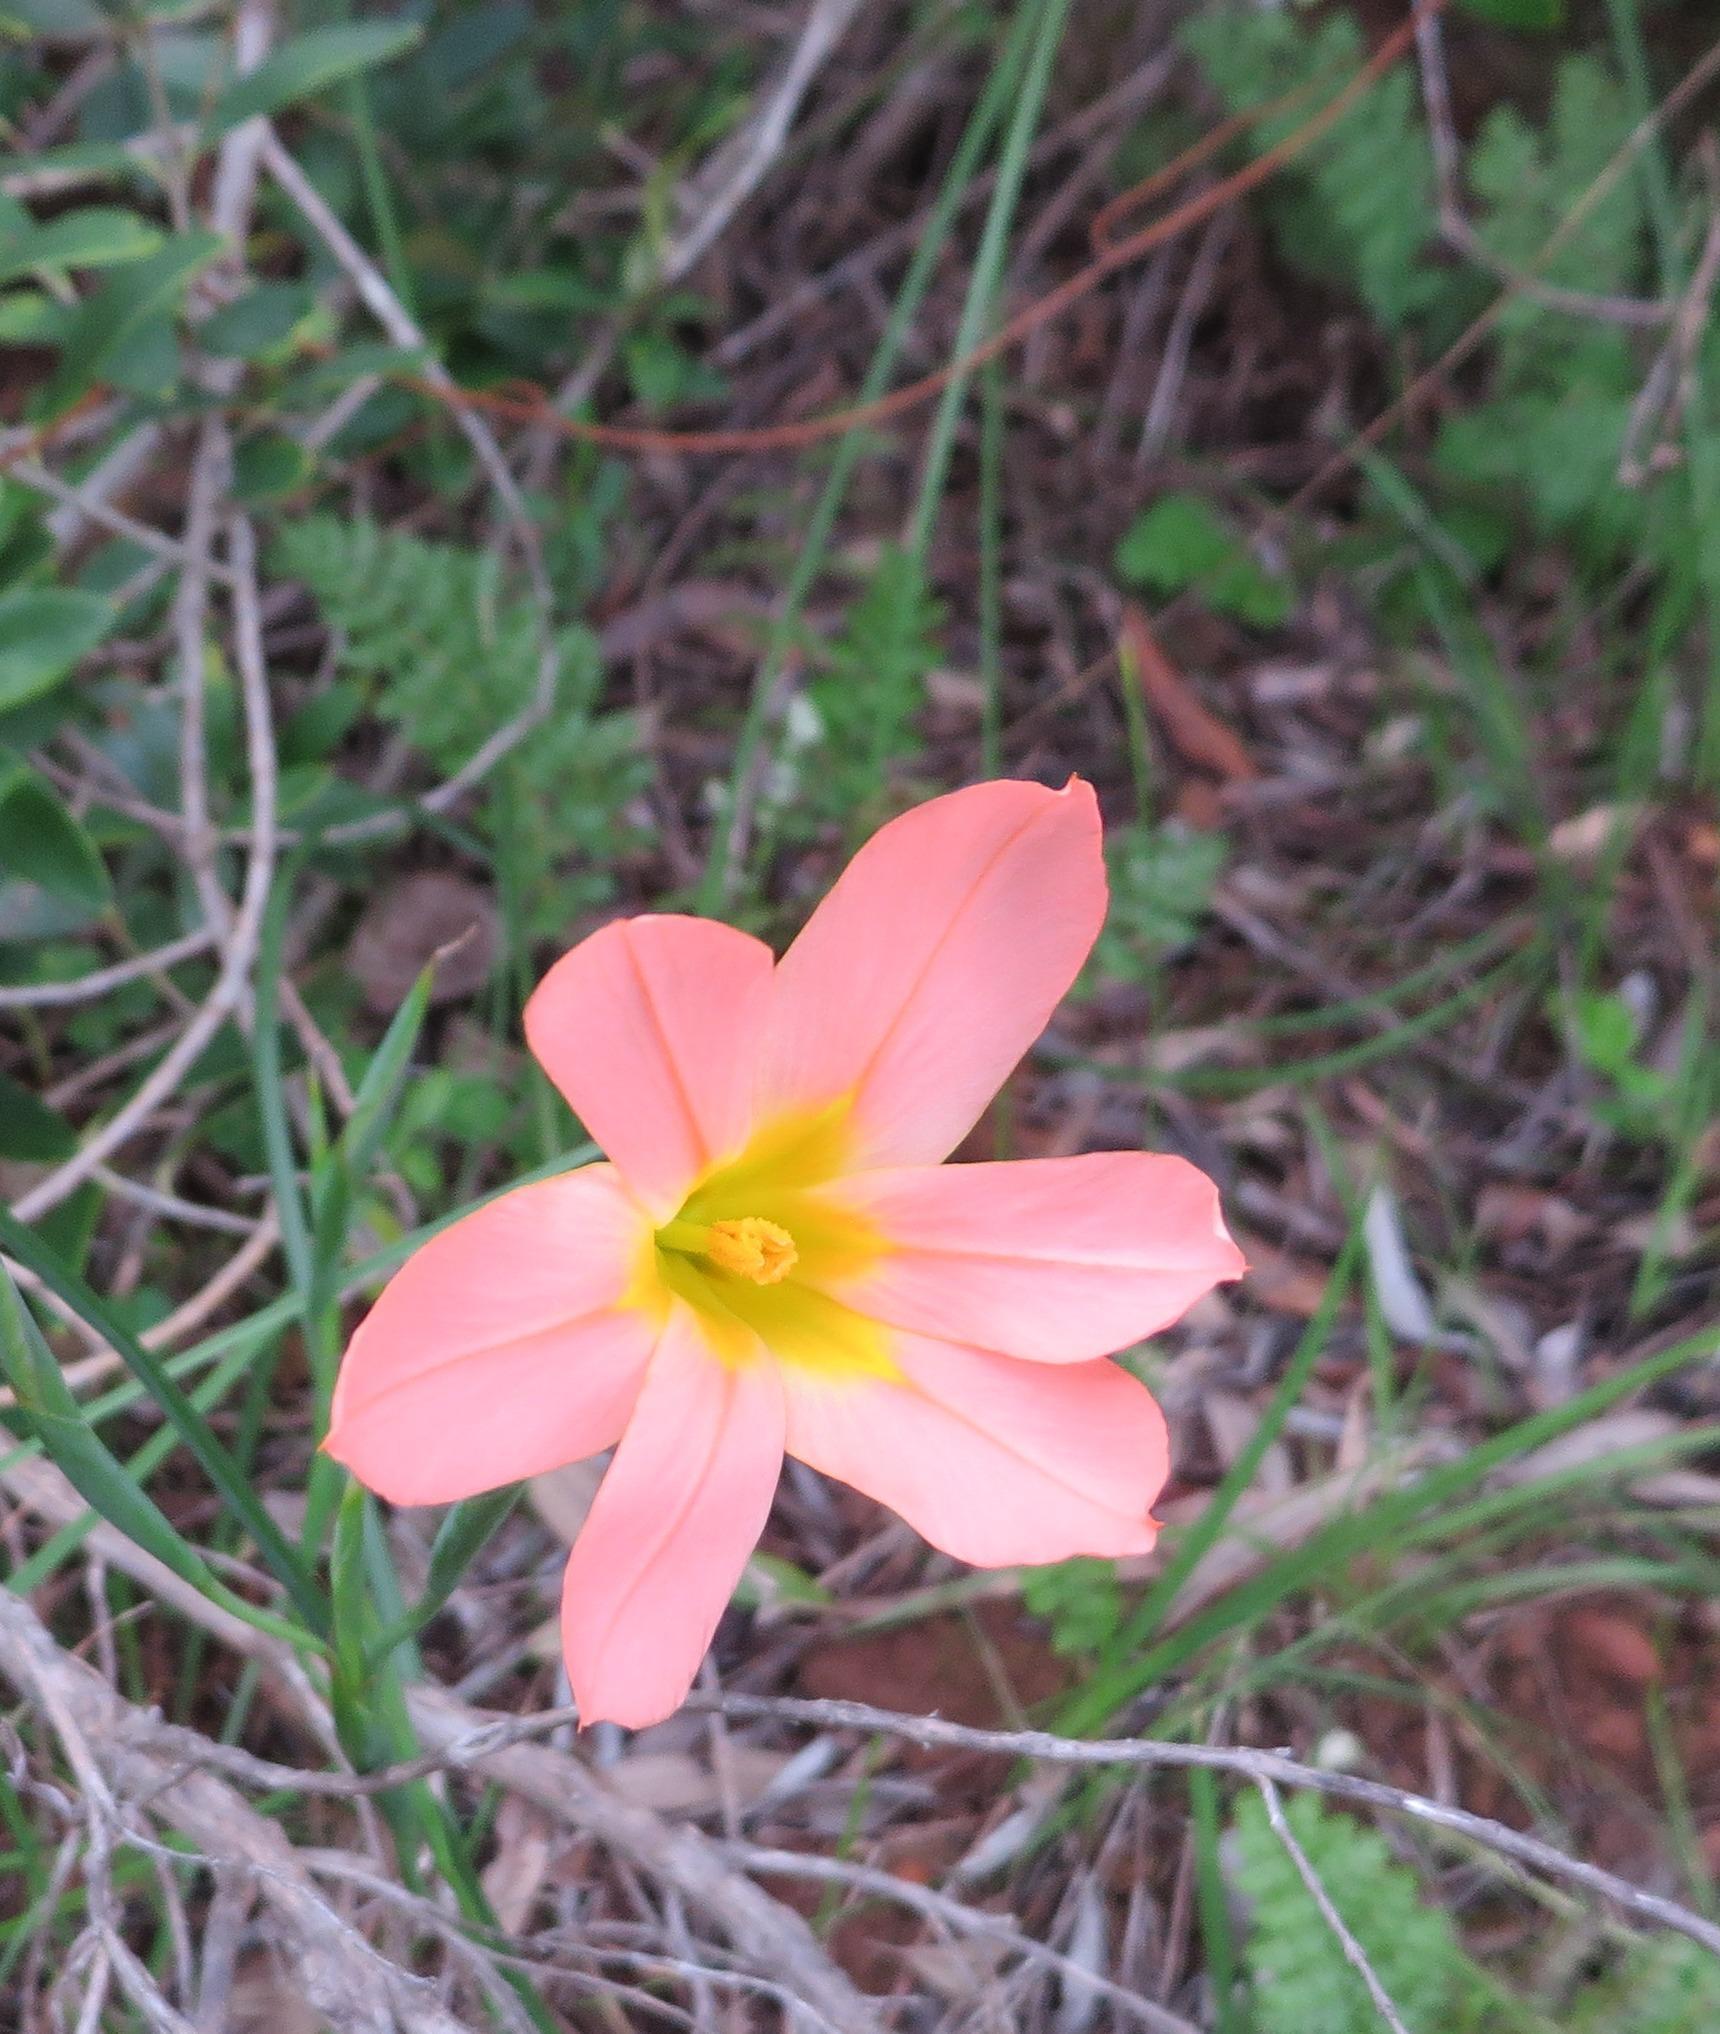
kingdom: Plantae
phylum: Tracheophyta
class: Liliopsida
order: Asparagales
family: Iridaceae
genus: Moraea
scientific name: Moraea flaccida
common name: One-leaf cape-tulip
